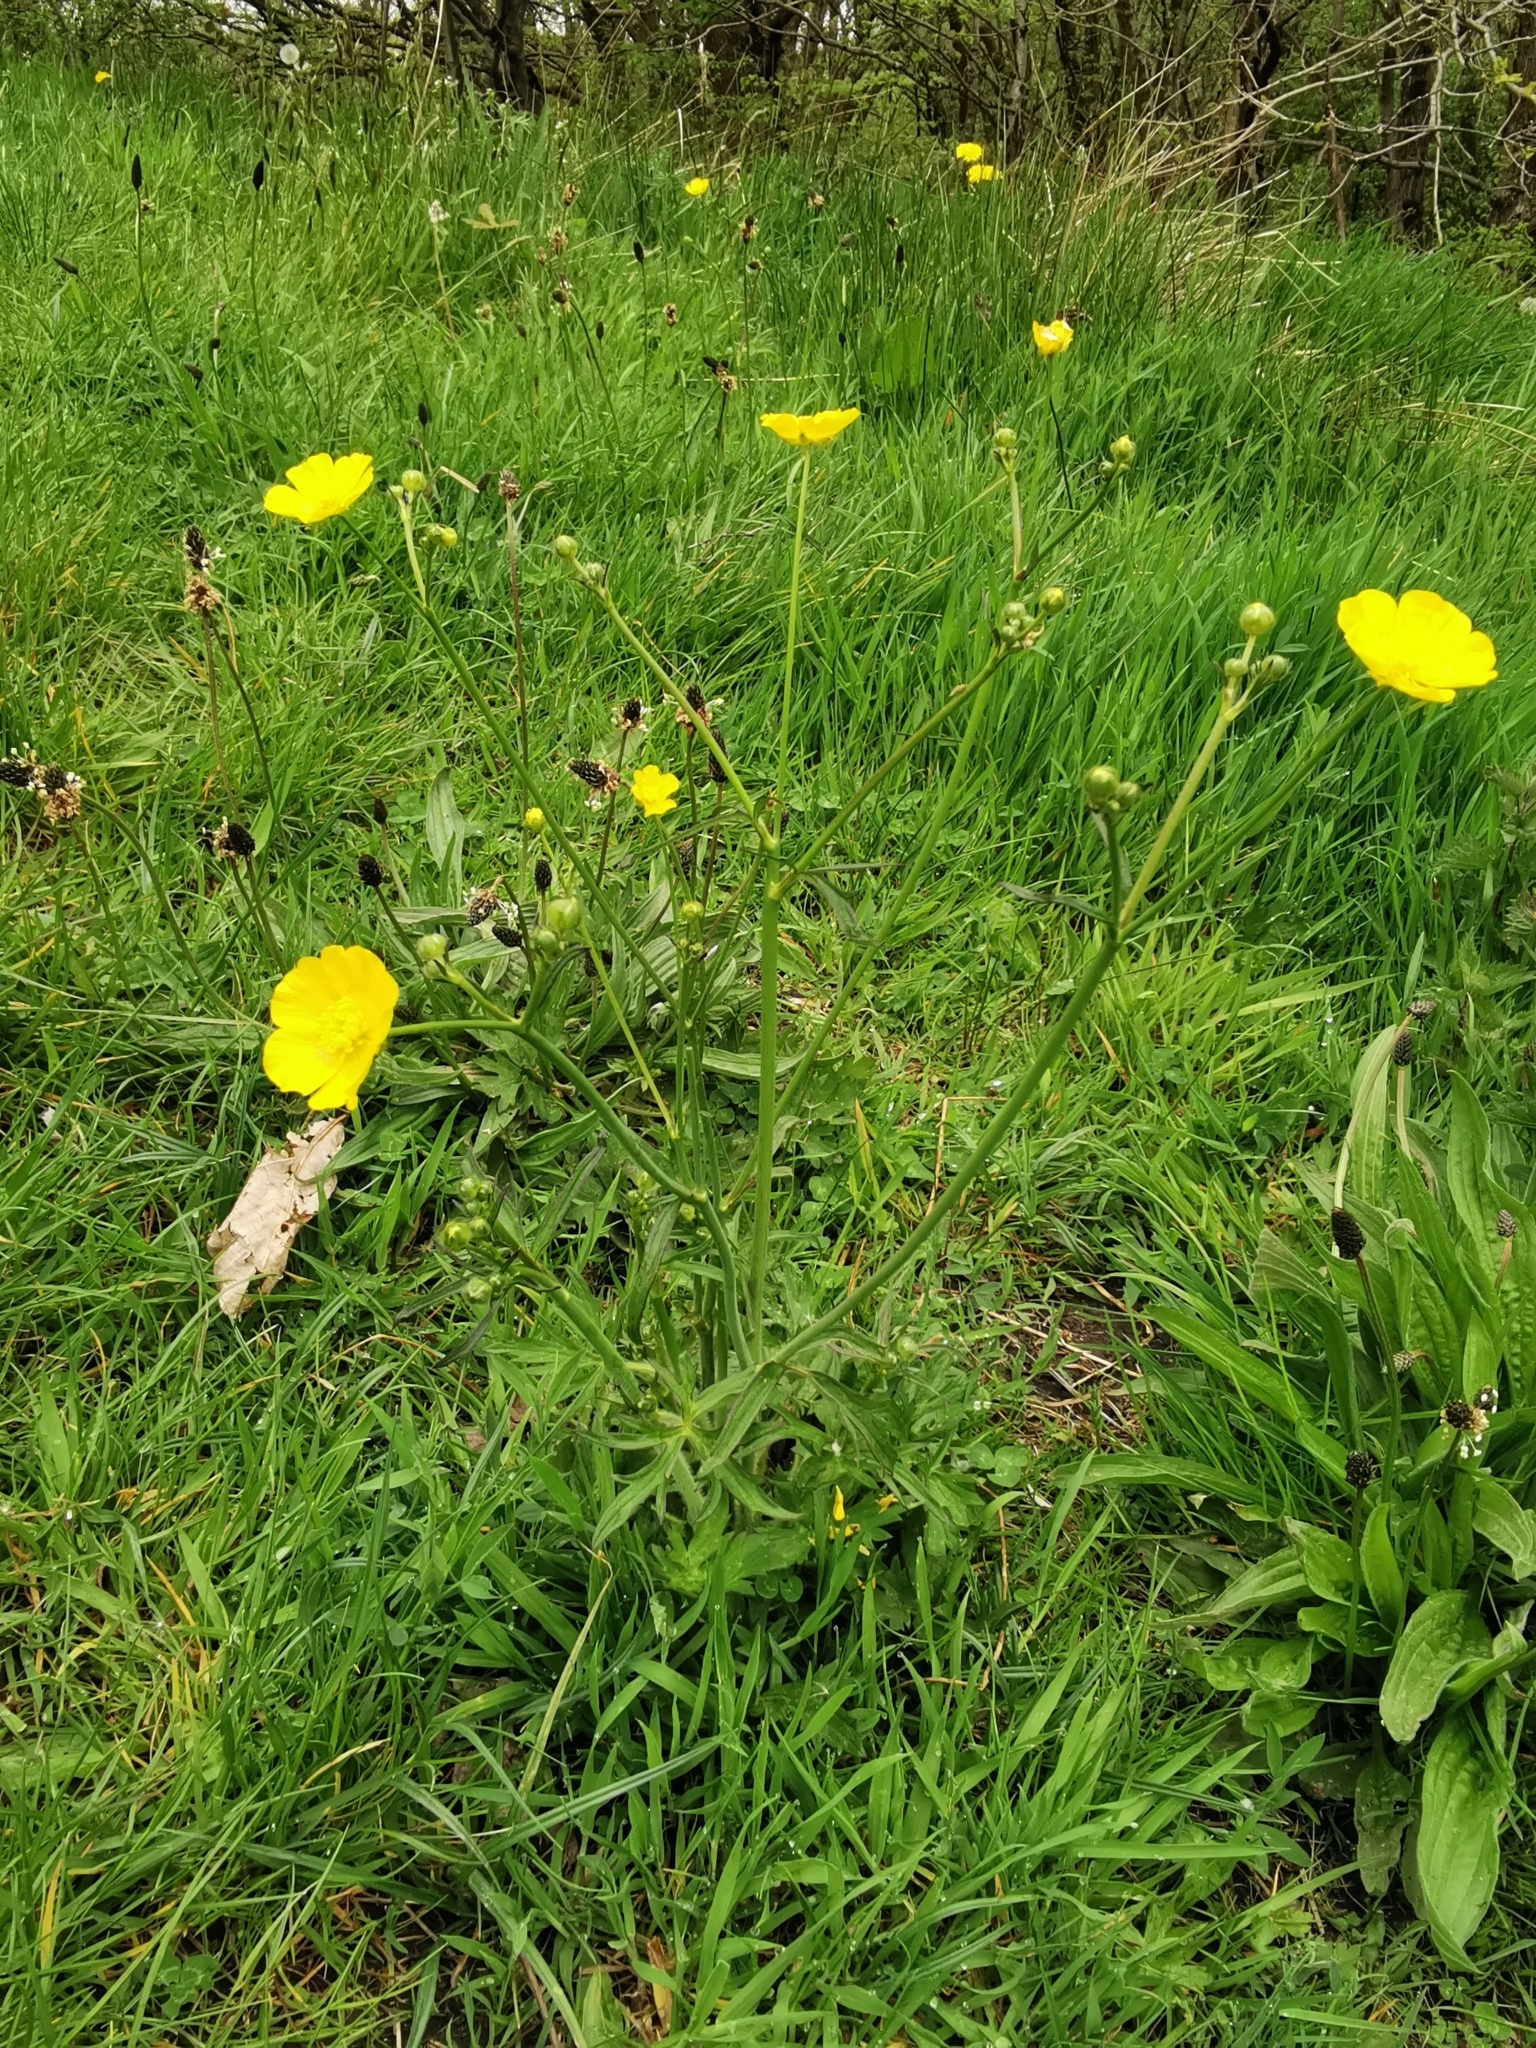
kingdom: Plantae
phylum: Tracheophyta
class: Magnoliopsida
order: Ranunculales
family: Ranunculaceae
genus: Ranunculus
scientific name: Ranunculus acris
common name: Meadow buttercup
